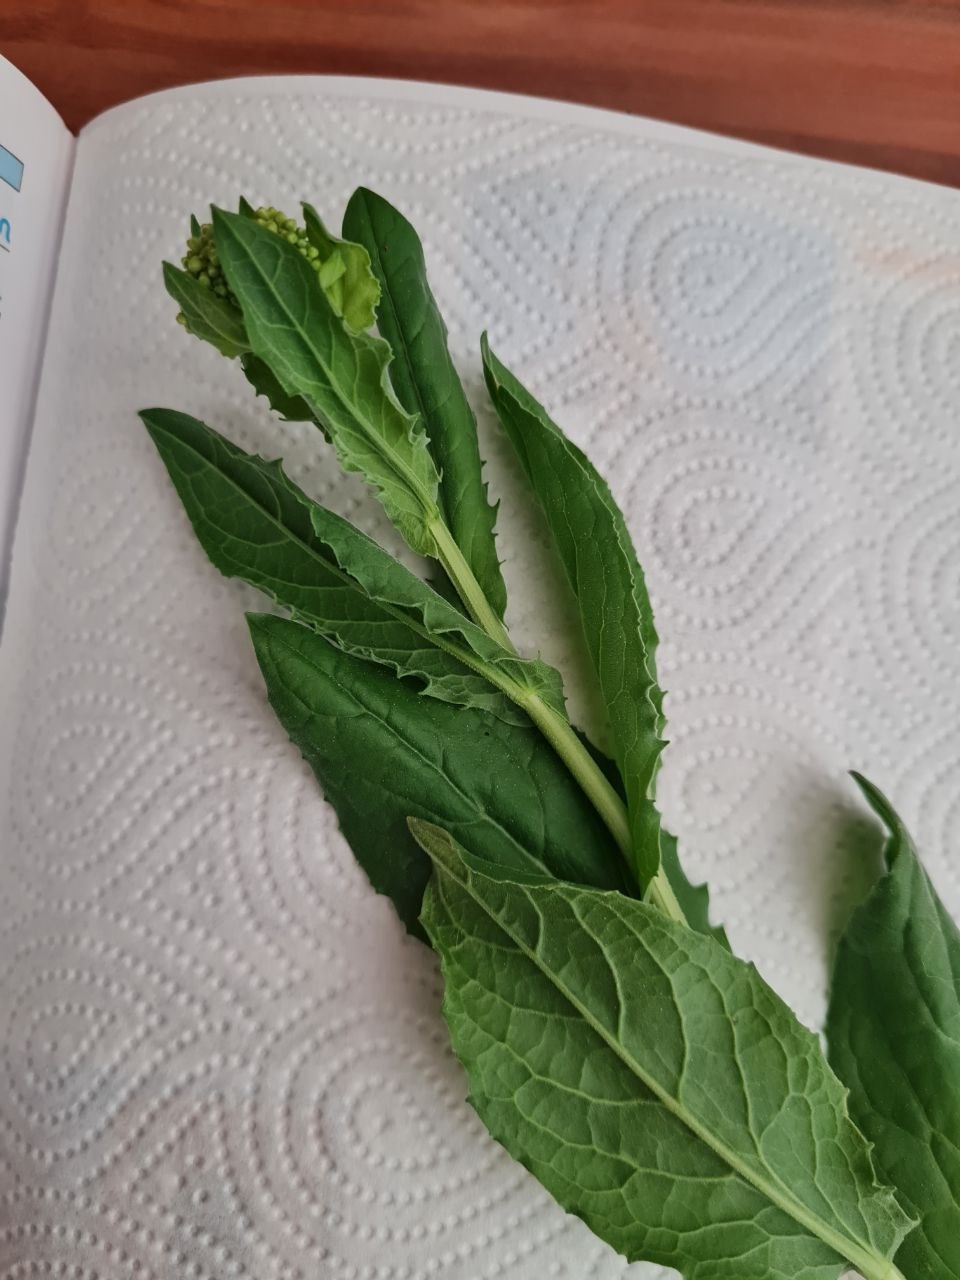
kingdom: Plantae
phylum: Tracheophyta
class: Magnoliopsida
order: Brassicales
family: Brassicaceae
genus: Lepidium
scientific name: Lepidium draba
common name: Hoary cress
